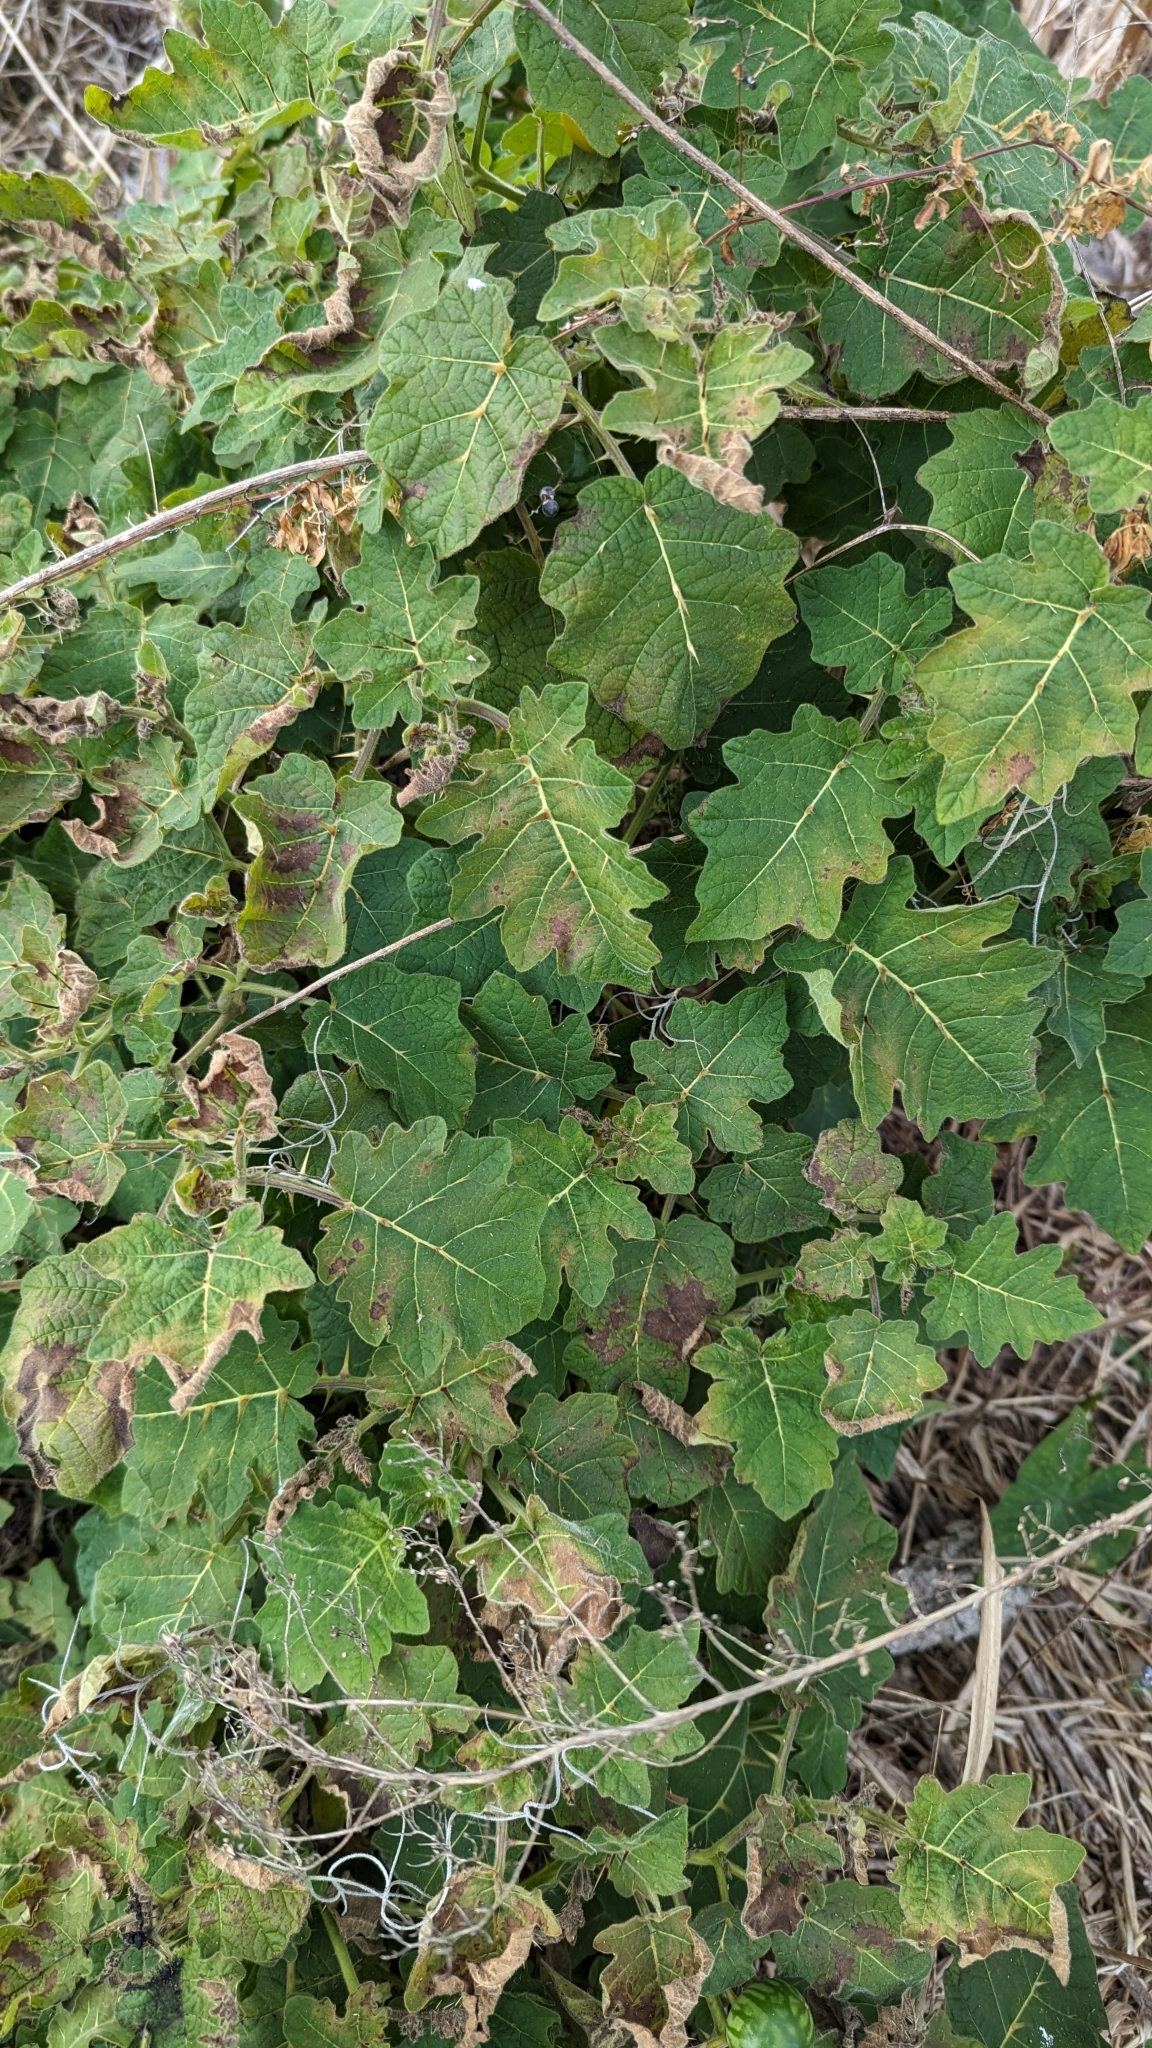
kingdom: Plantae
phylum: Tracheophyta
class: Magnoliopsida
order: Solanales
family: Solanaceae
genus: Solanum
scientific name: Solanum viarum
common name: Tropical soda apple
